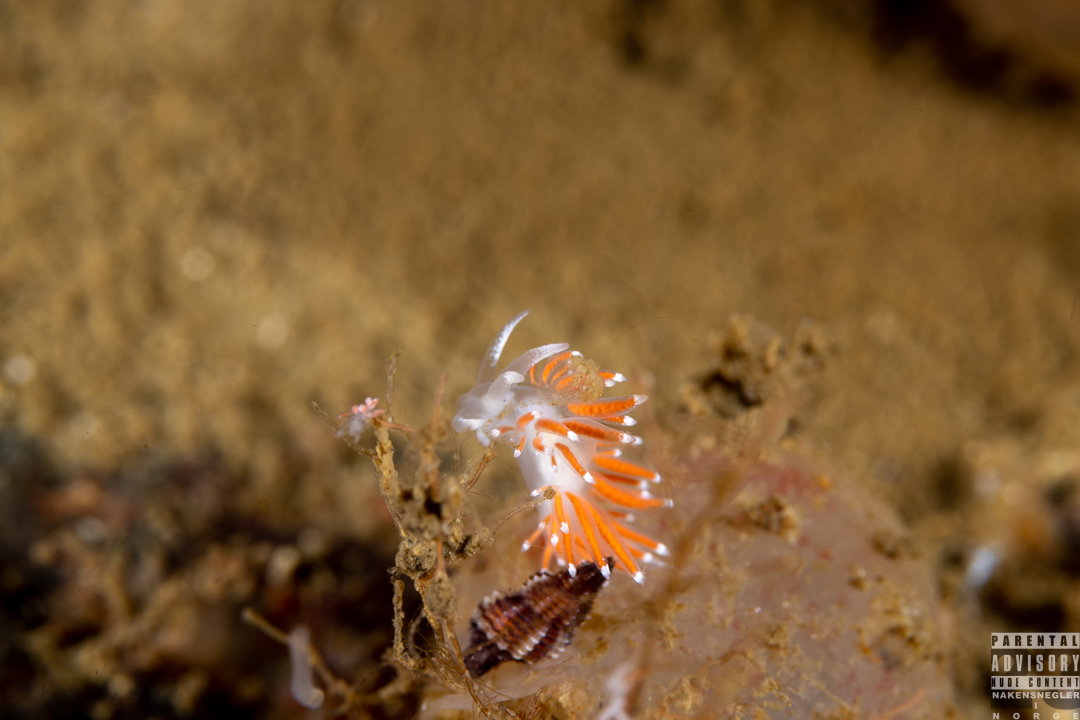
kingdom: Animalia
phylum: Mollusca
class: Gastropoda
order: Nudibranchia
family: Coryphellidae
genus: Coryphella
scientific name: Coryphella gracilis
